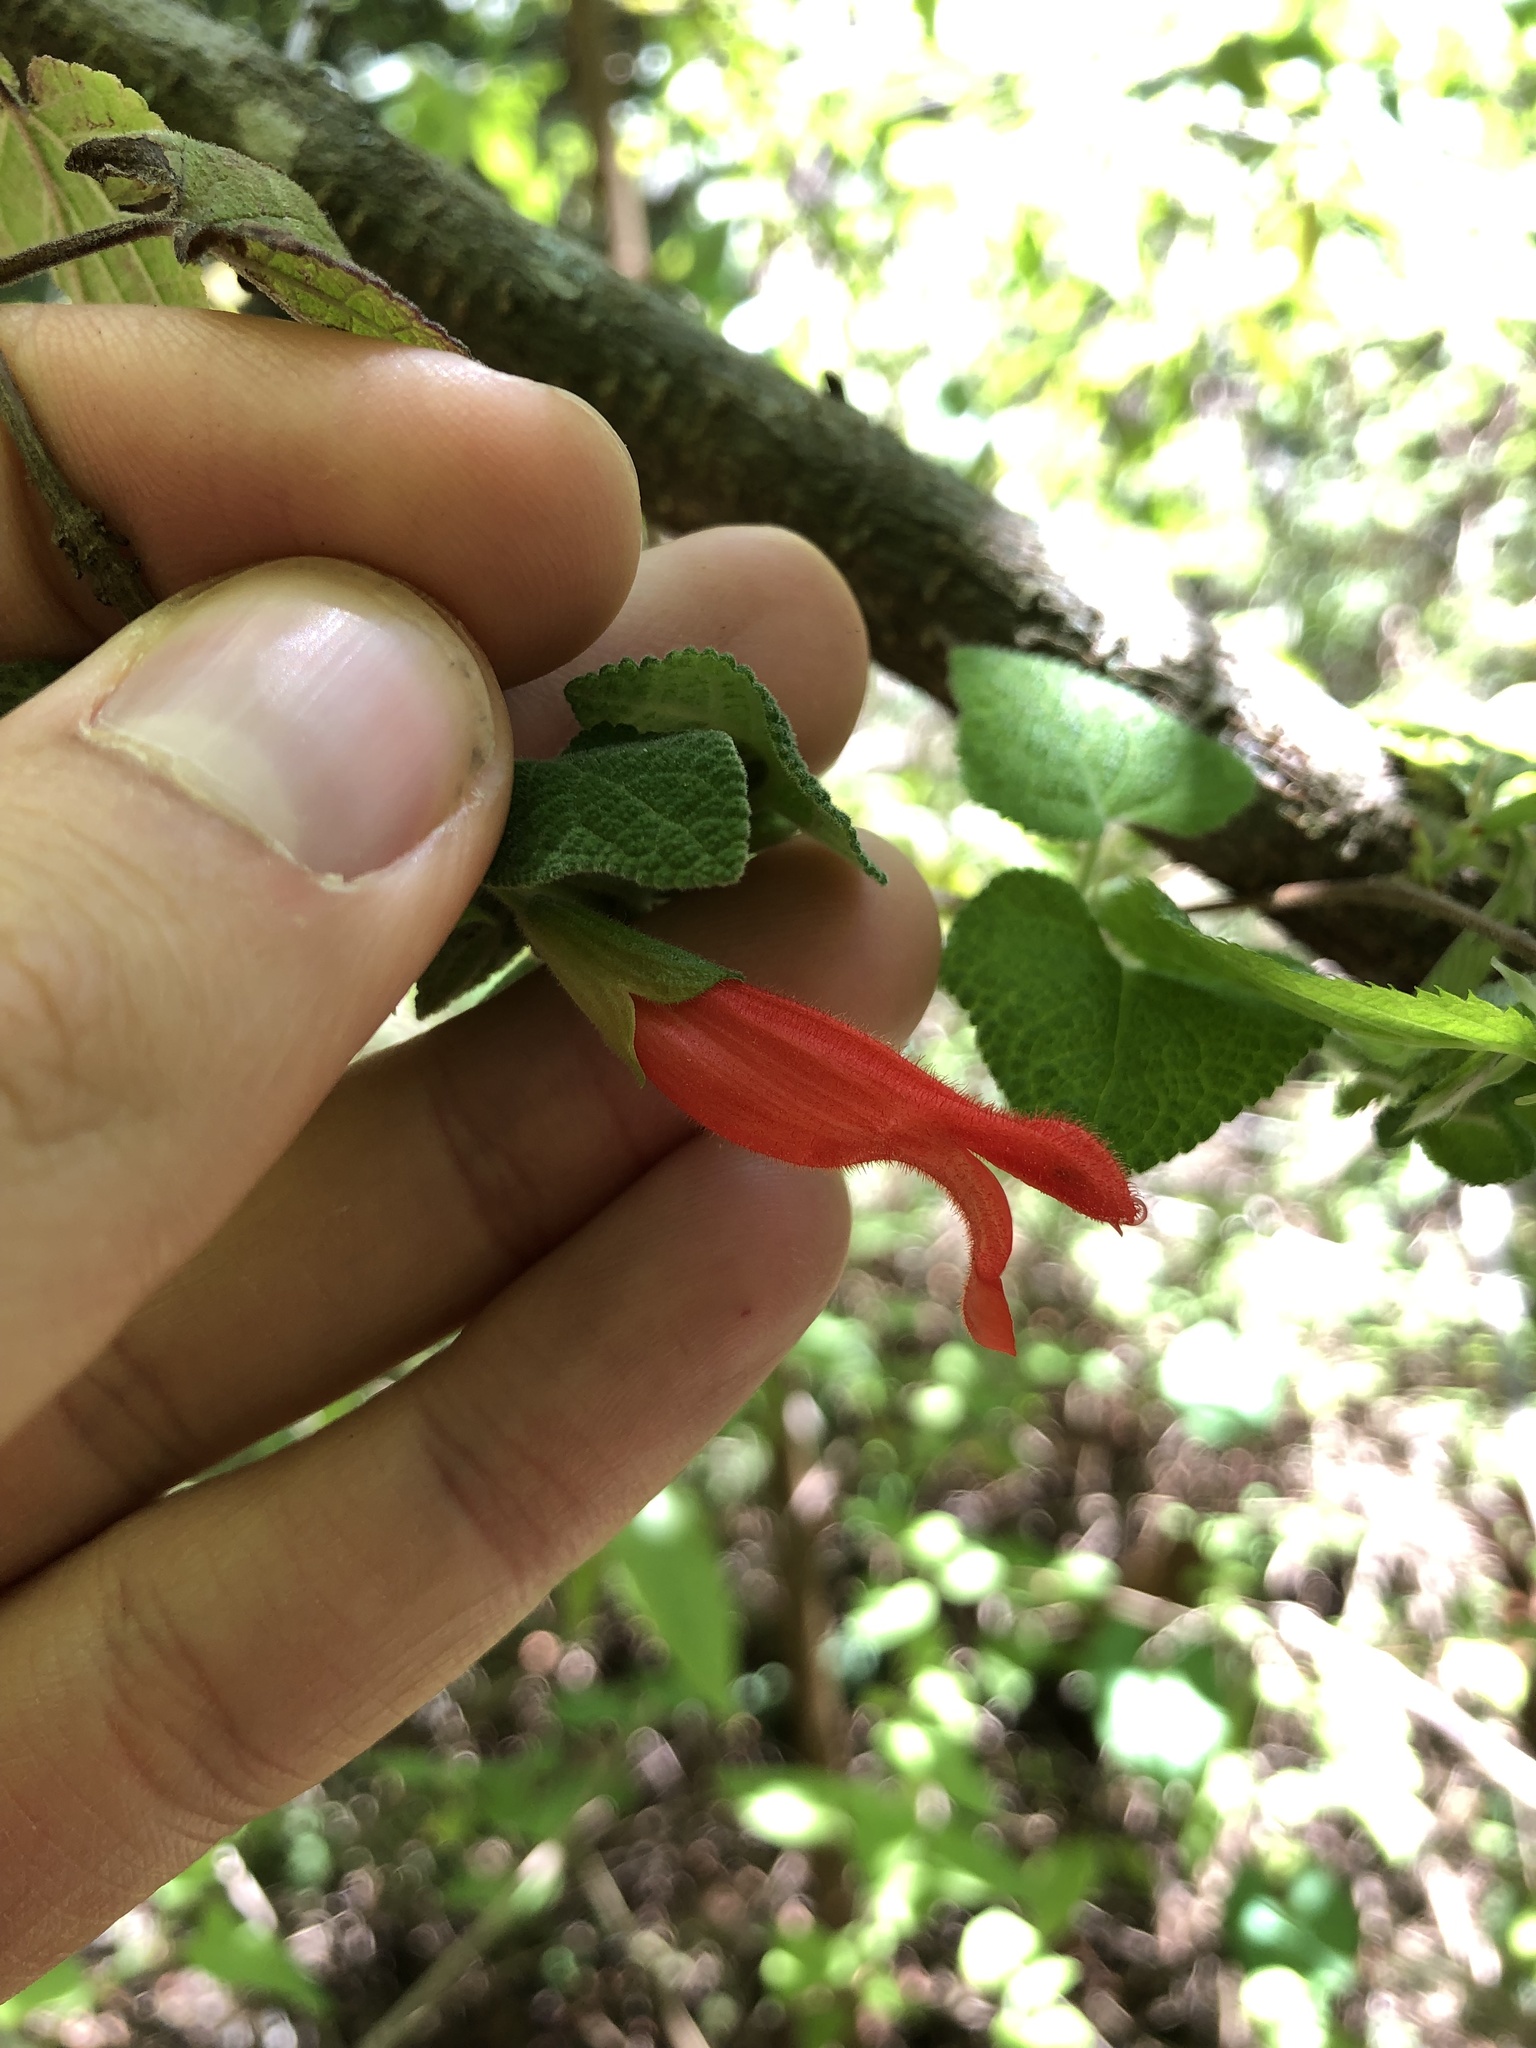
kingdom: Plantae
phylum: Tracheophyta
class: Magnoliopsida
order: Lamiales
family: Lamiaceae
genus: Salvia
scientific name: Salvia disjuncta
